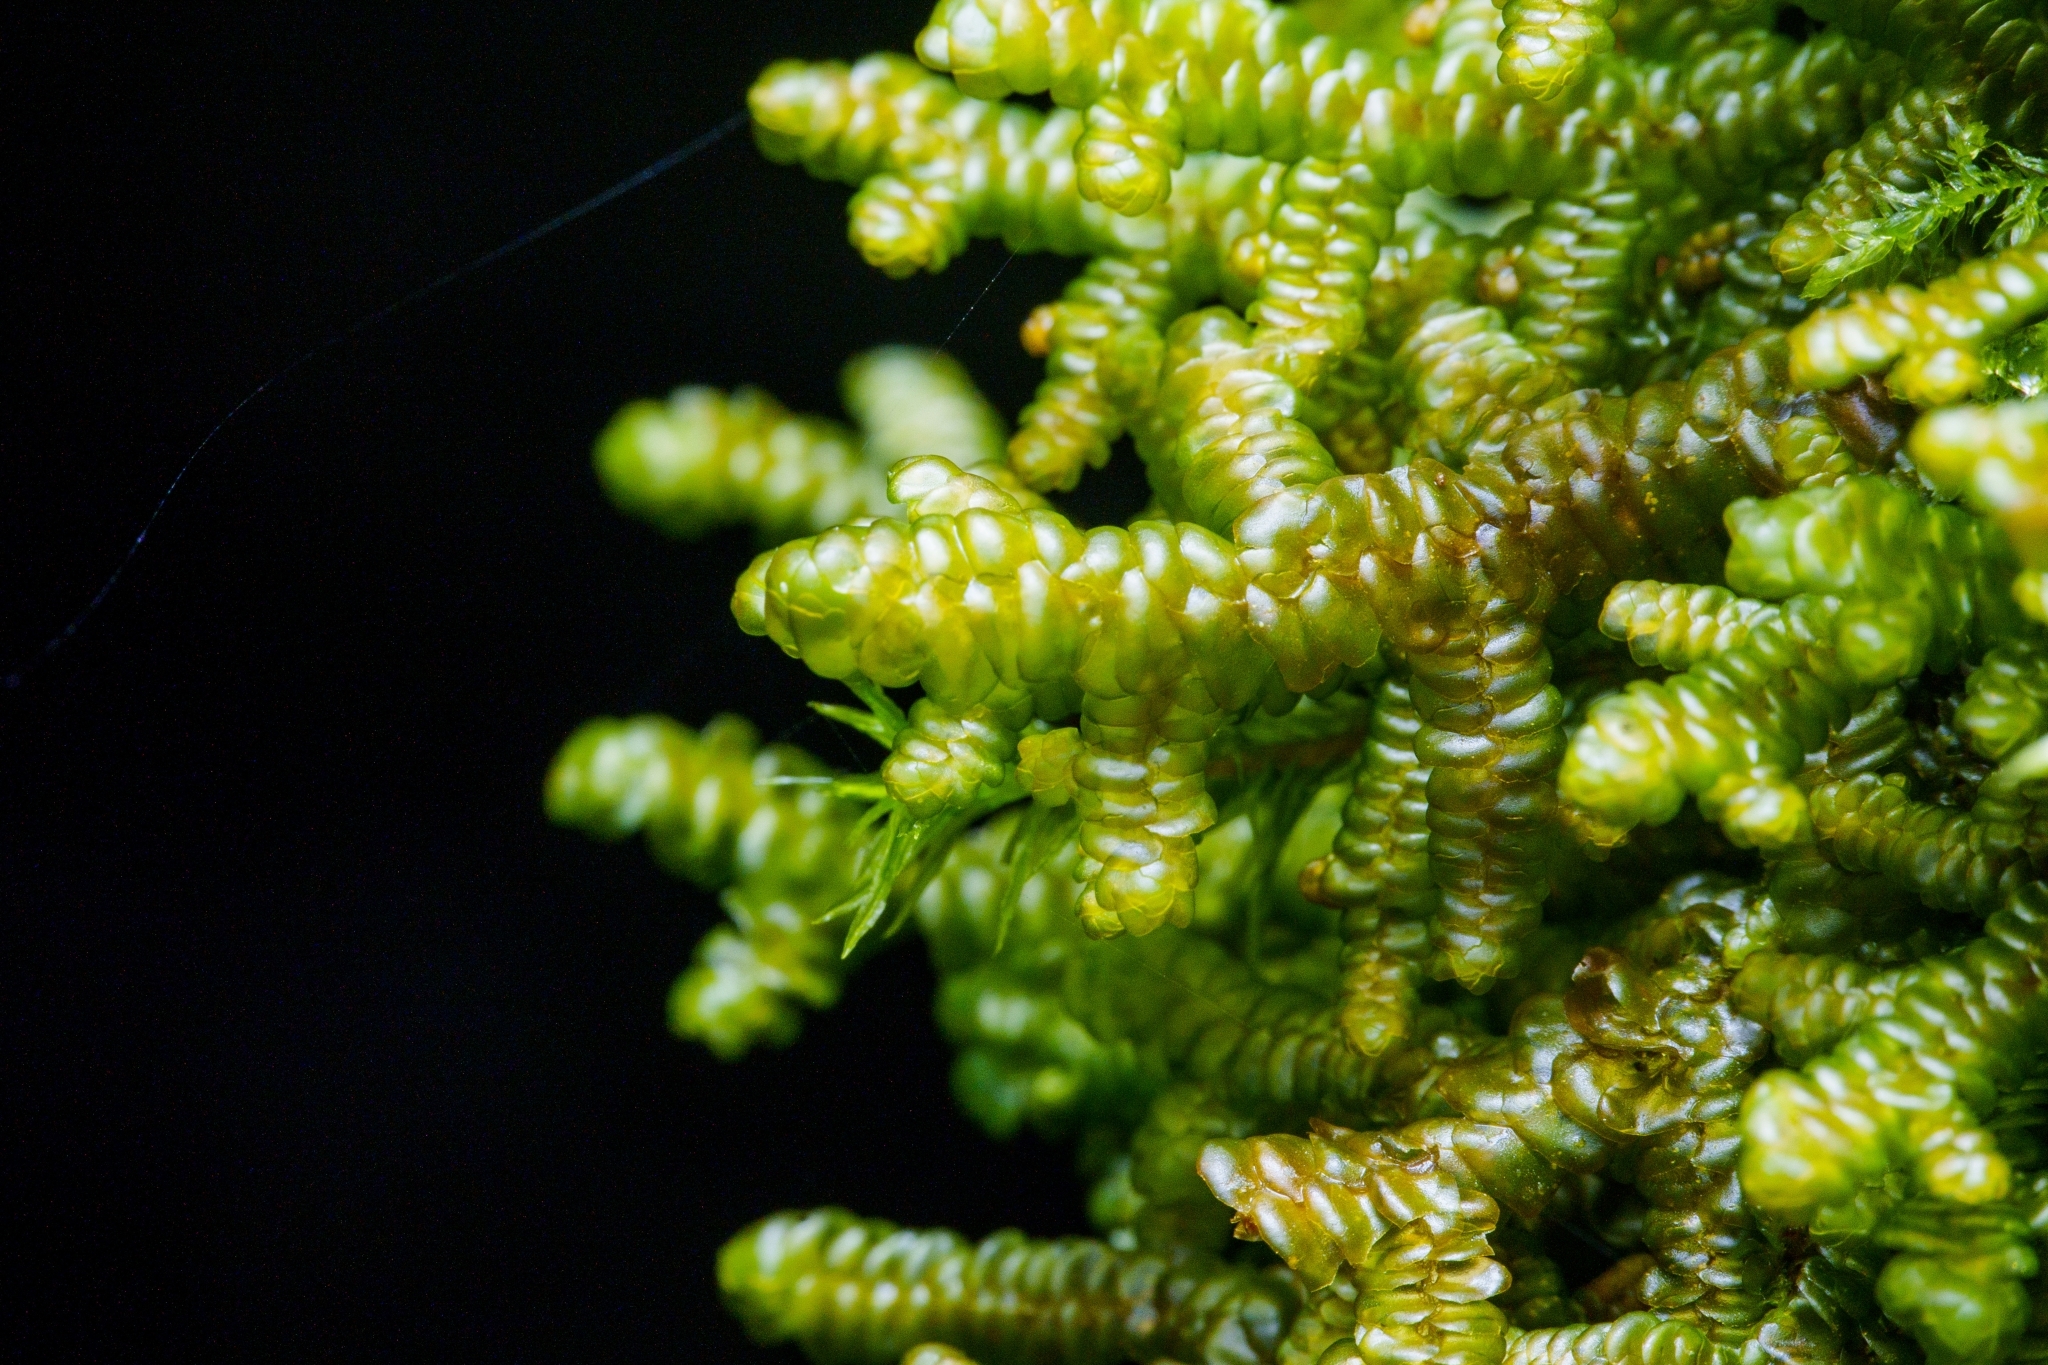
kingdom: Plantae
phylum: Marchantiophyta
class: Jungermanniopsida
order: Porellales
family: Porellaceae
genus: Porella
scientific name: Porella navicularis
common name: Tree ruffle liverwort
